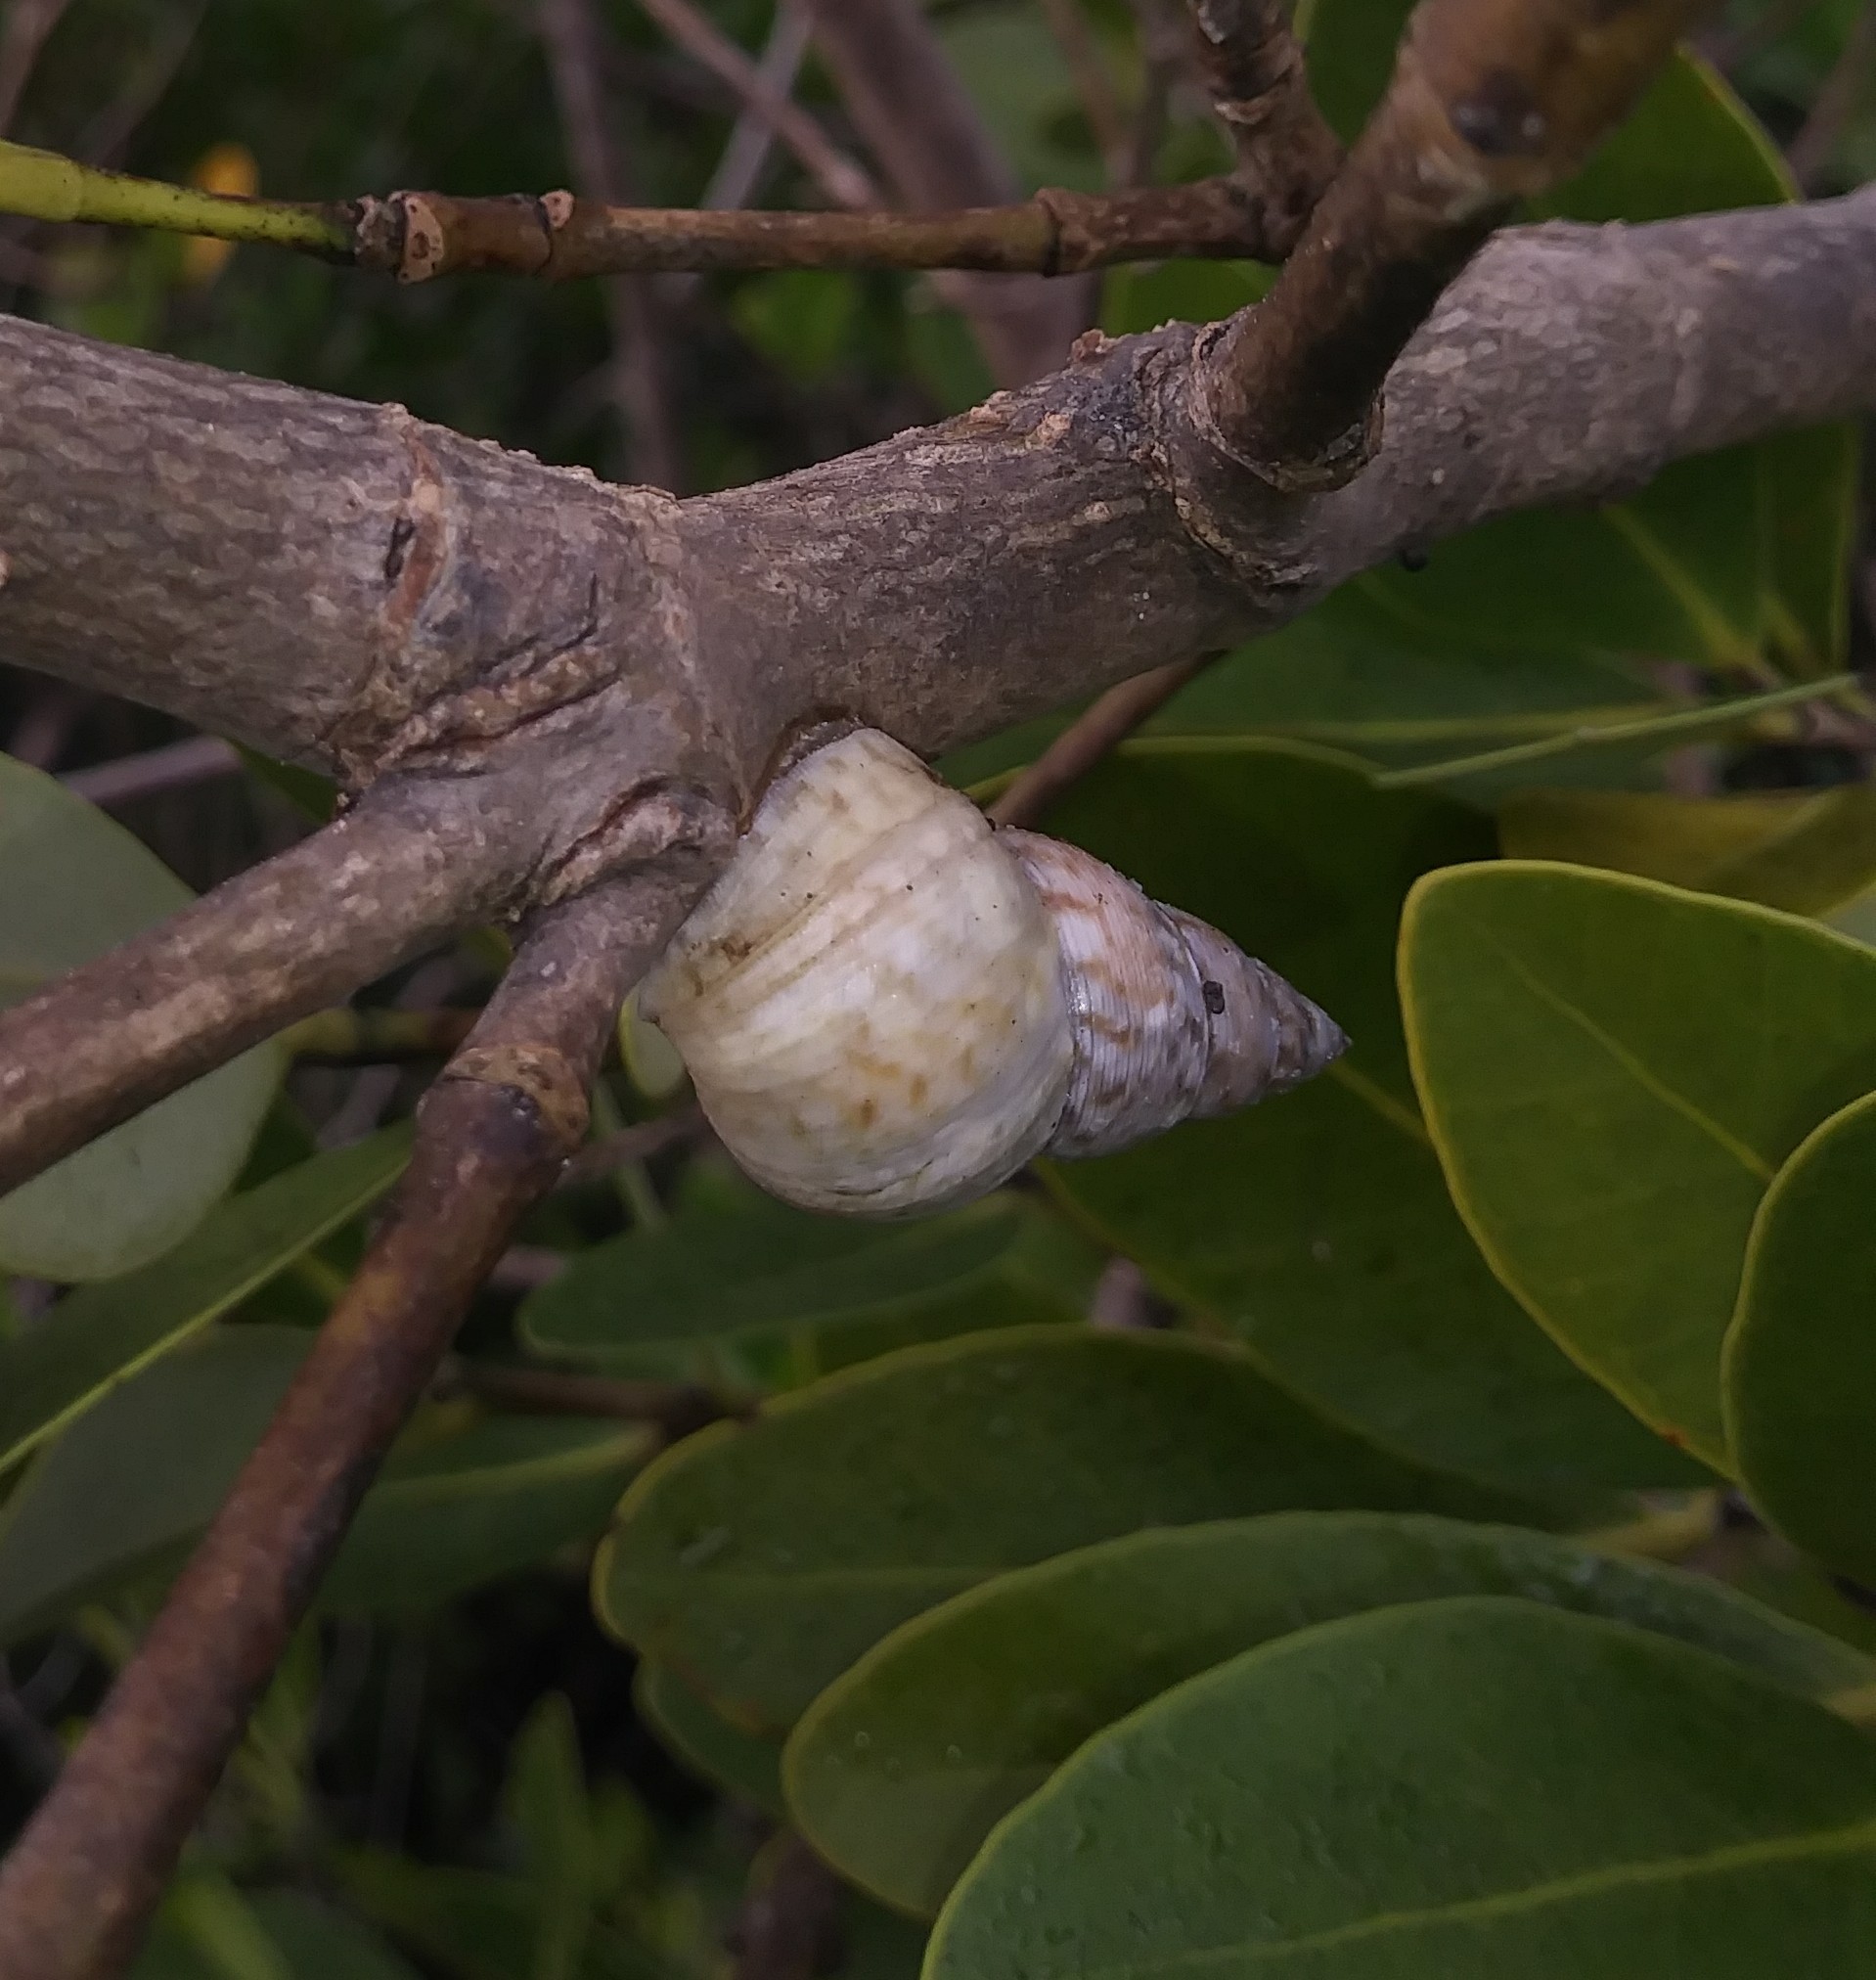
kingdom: Animalia
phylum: Mollusca
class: Gastropoda
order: Littorinimorpha
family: Littorinidae
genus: Littoraria
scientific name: Littoraria angulifera
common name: Mangrove periwinkle
